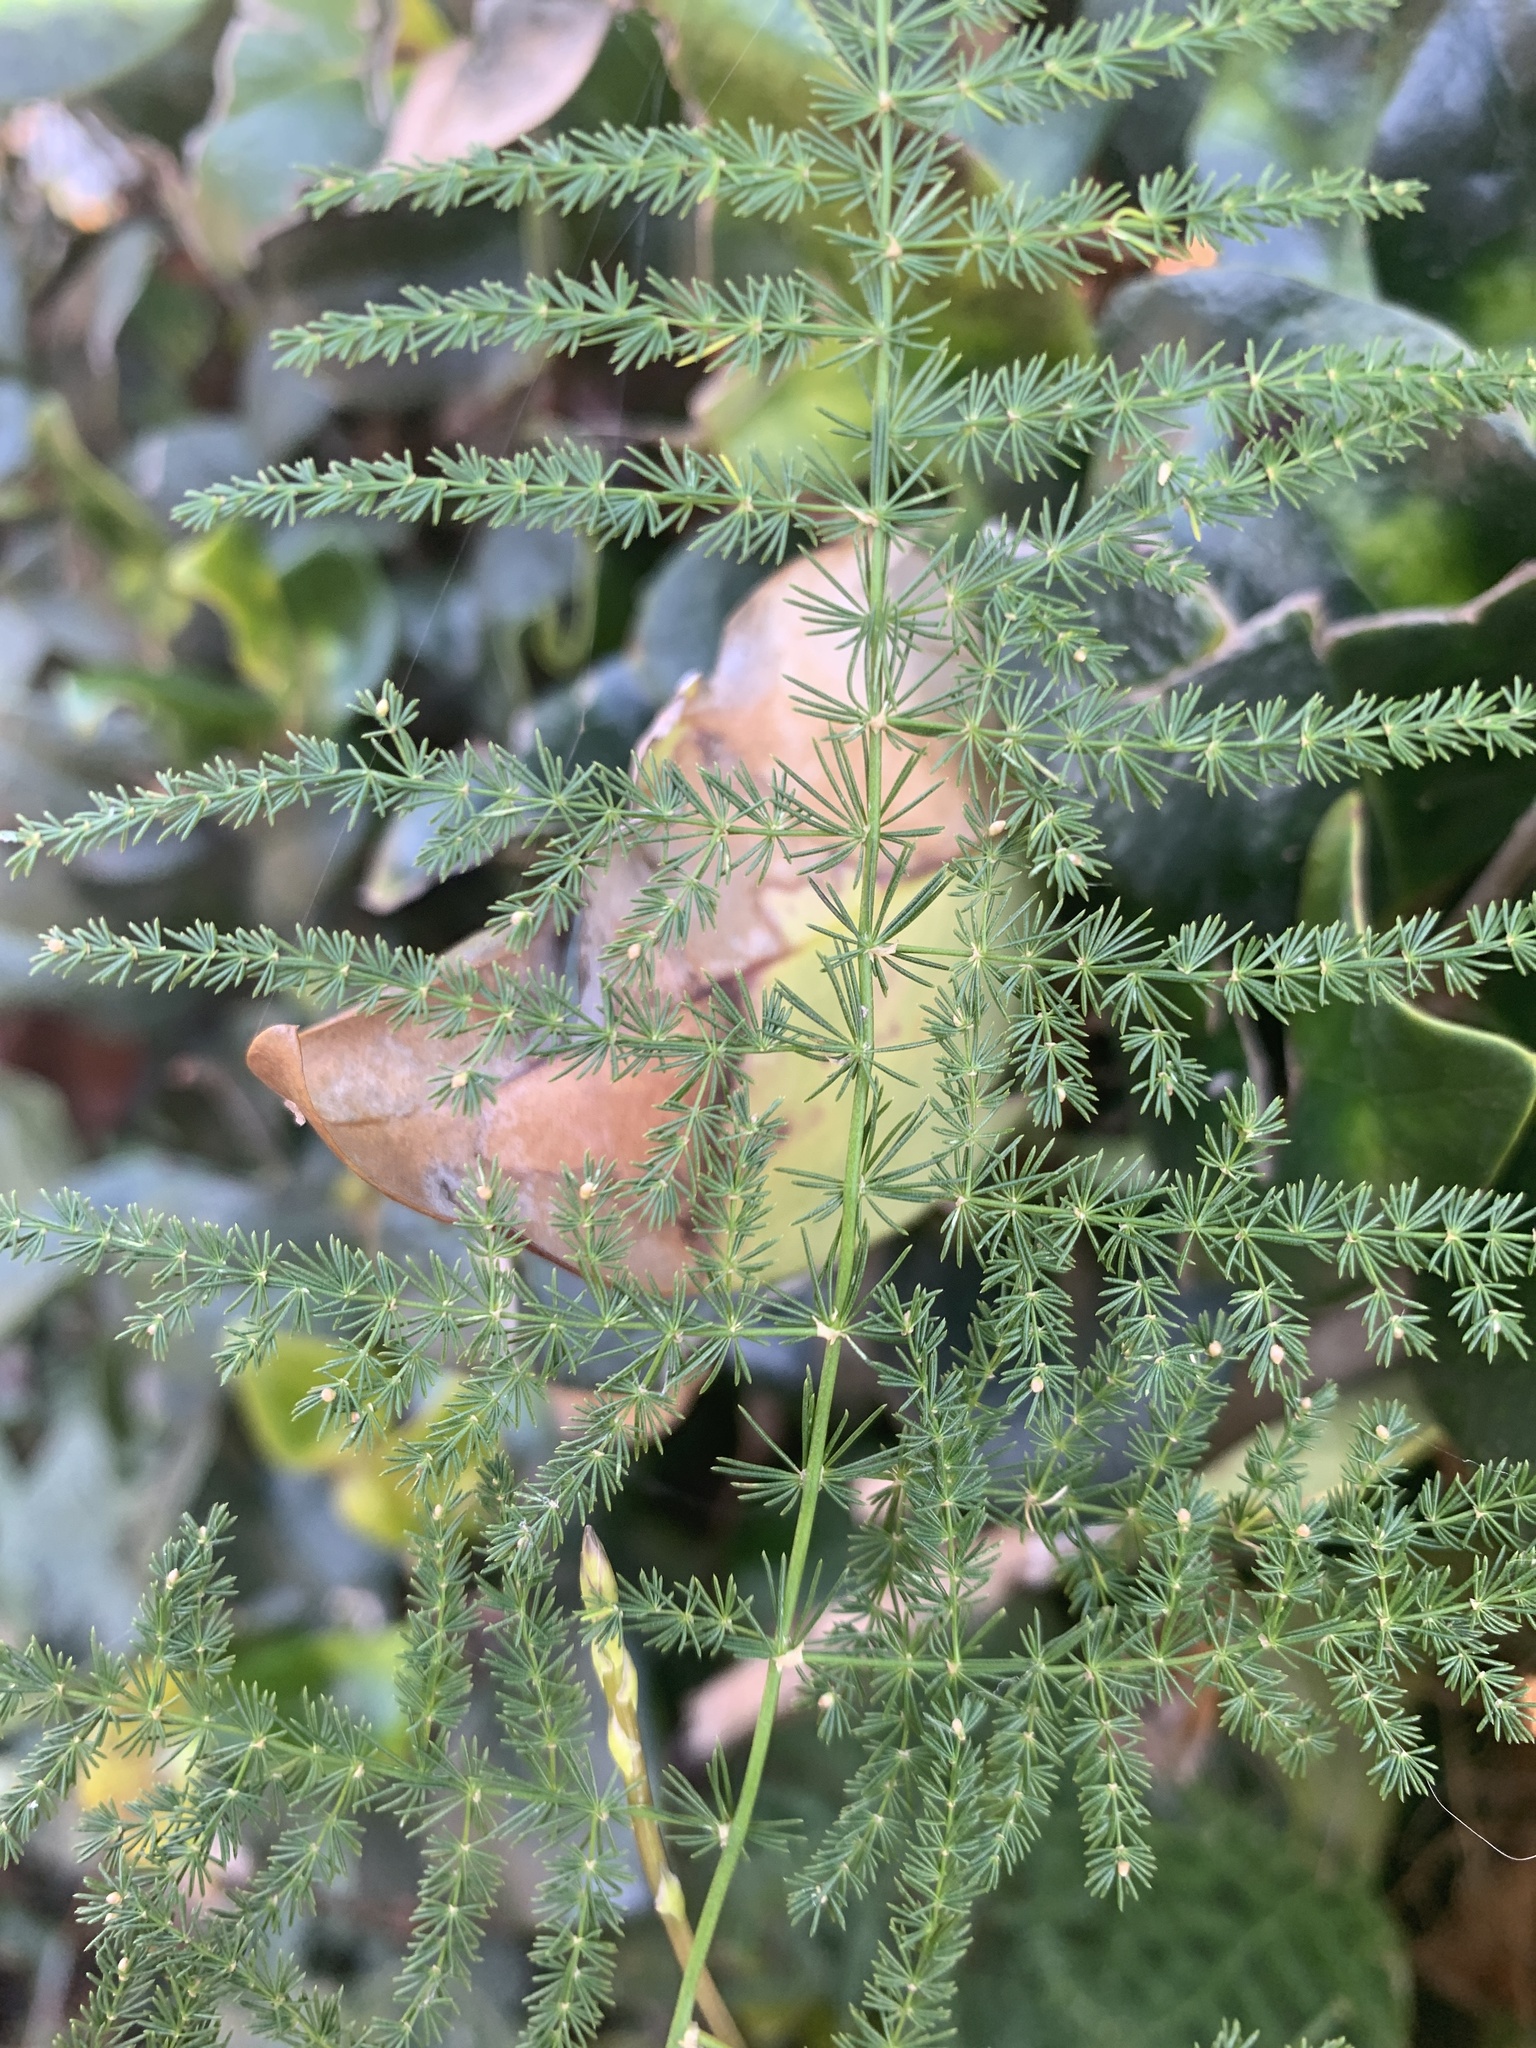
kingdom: Plantae
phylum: Tracheophyta
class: Liliopsida
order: Asparagales
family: Asparagaceae
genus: Asparagus
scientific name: Asparagus setaceus
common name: Common asparagus fern
